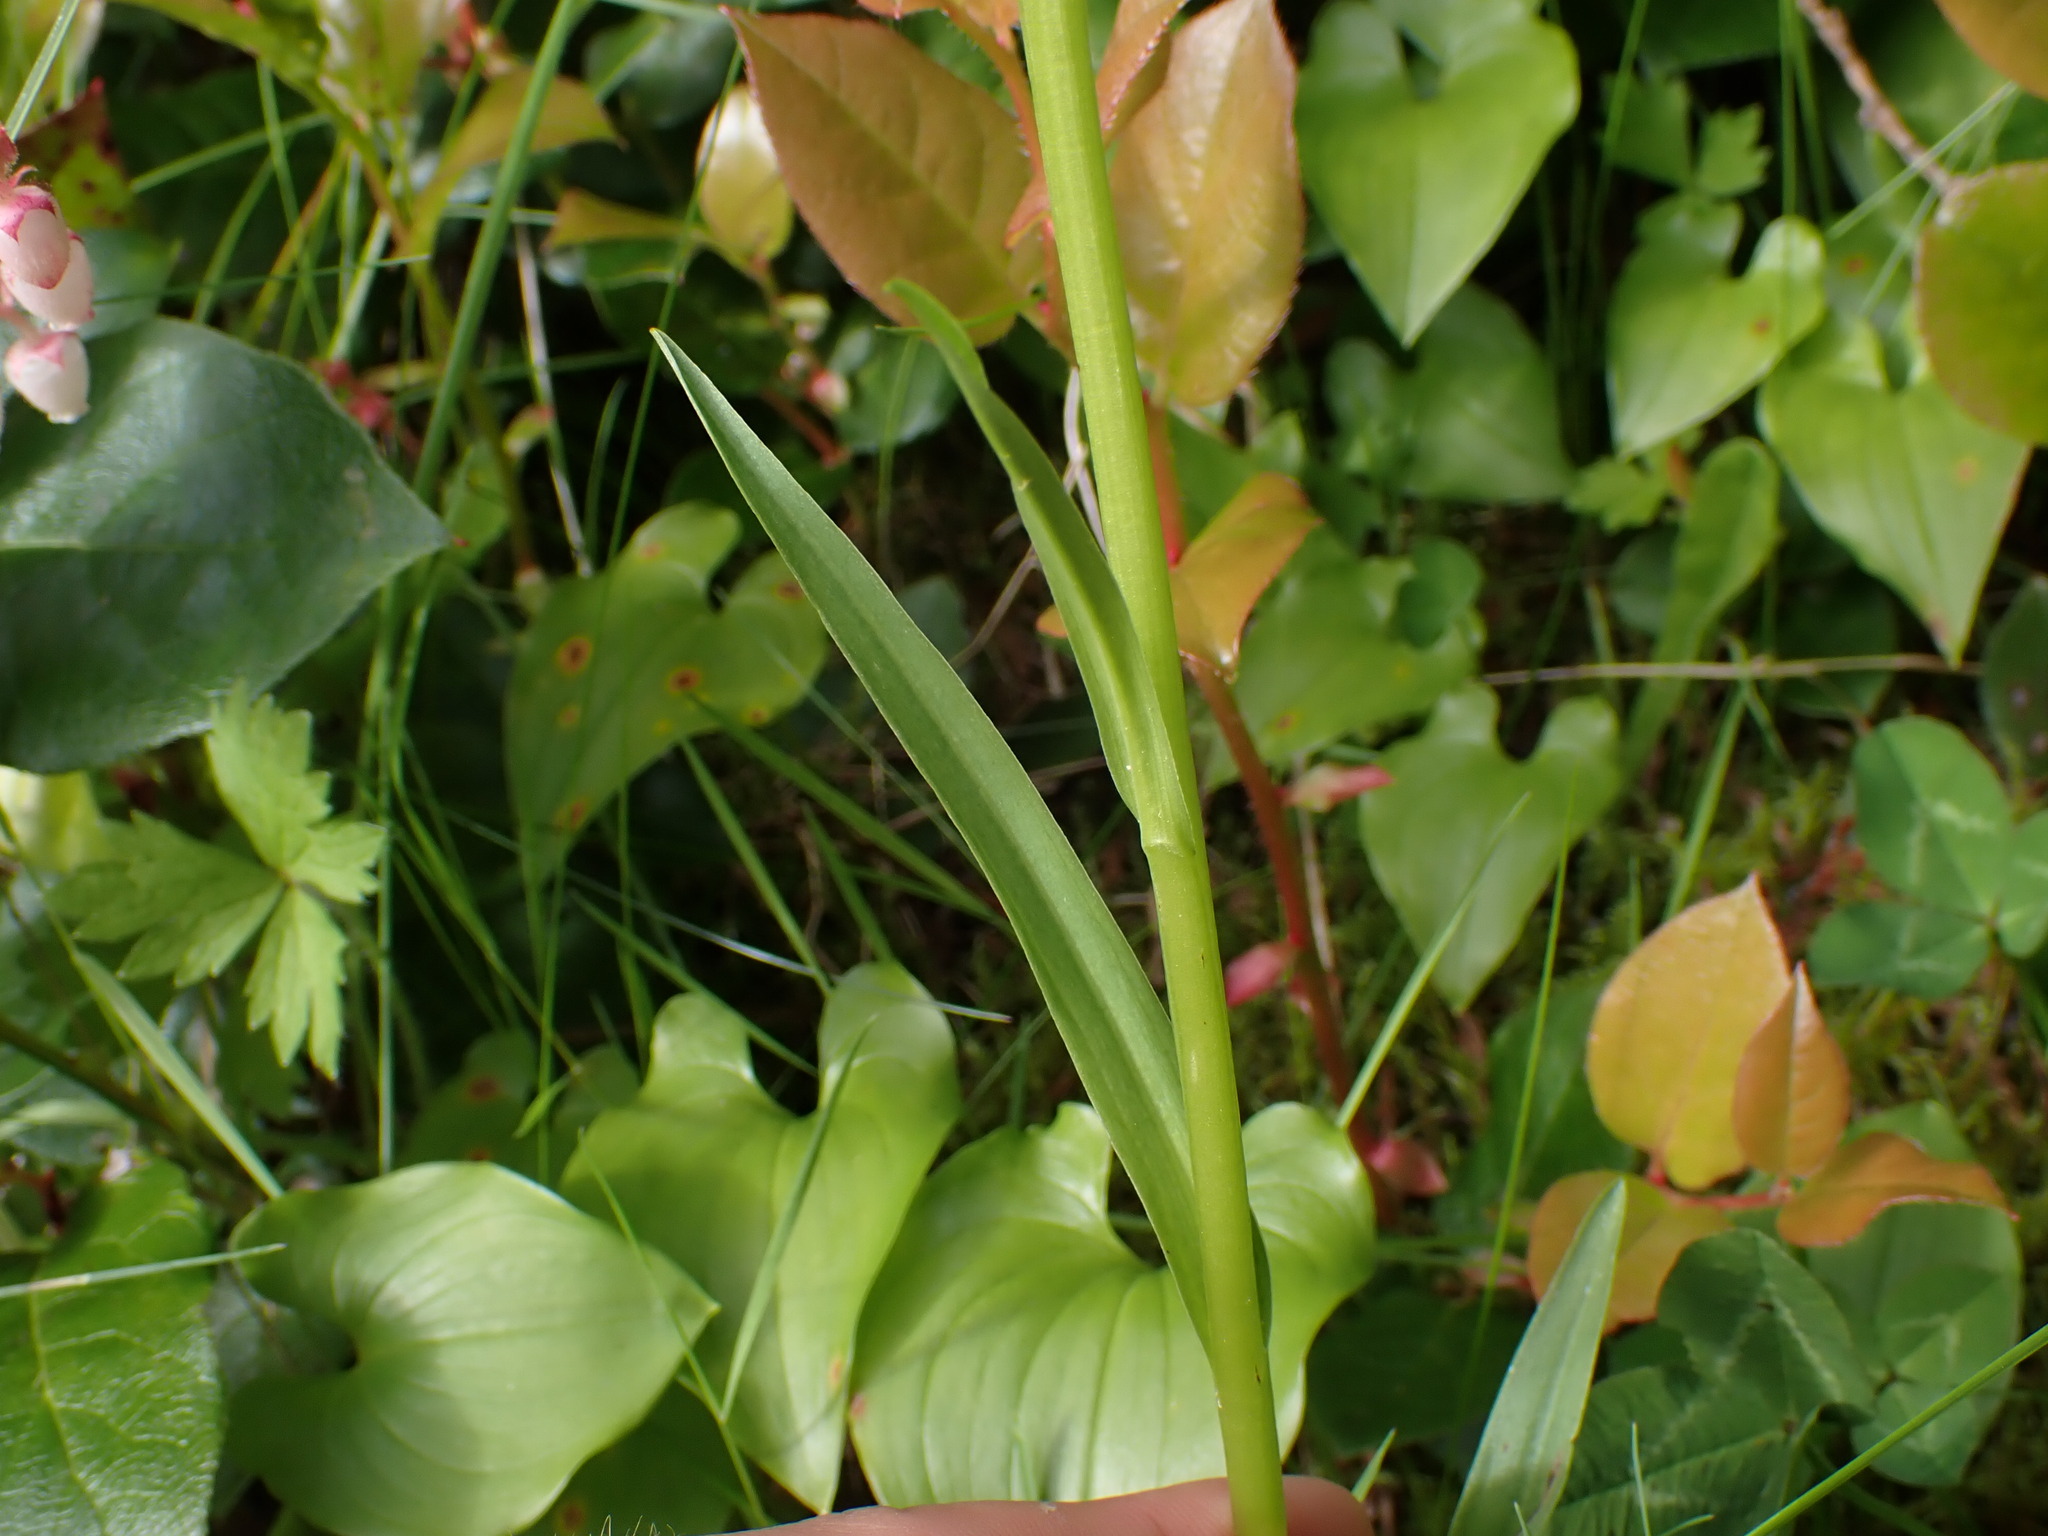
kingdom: Plantae
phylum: Tracheophyta
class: Liliopsida
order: Asparagales
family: Orchidaceae
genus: Platanthera
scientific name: Platanthera stricta
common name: Slender bog orchid
